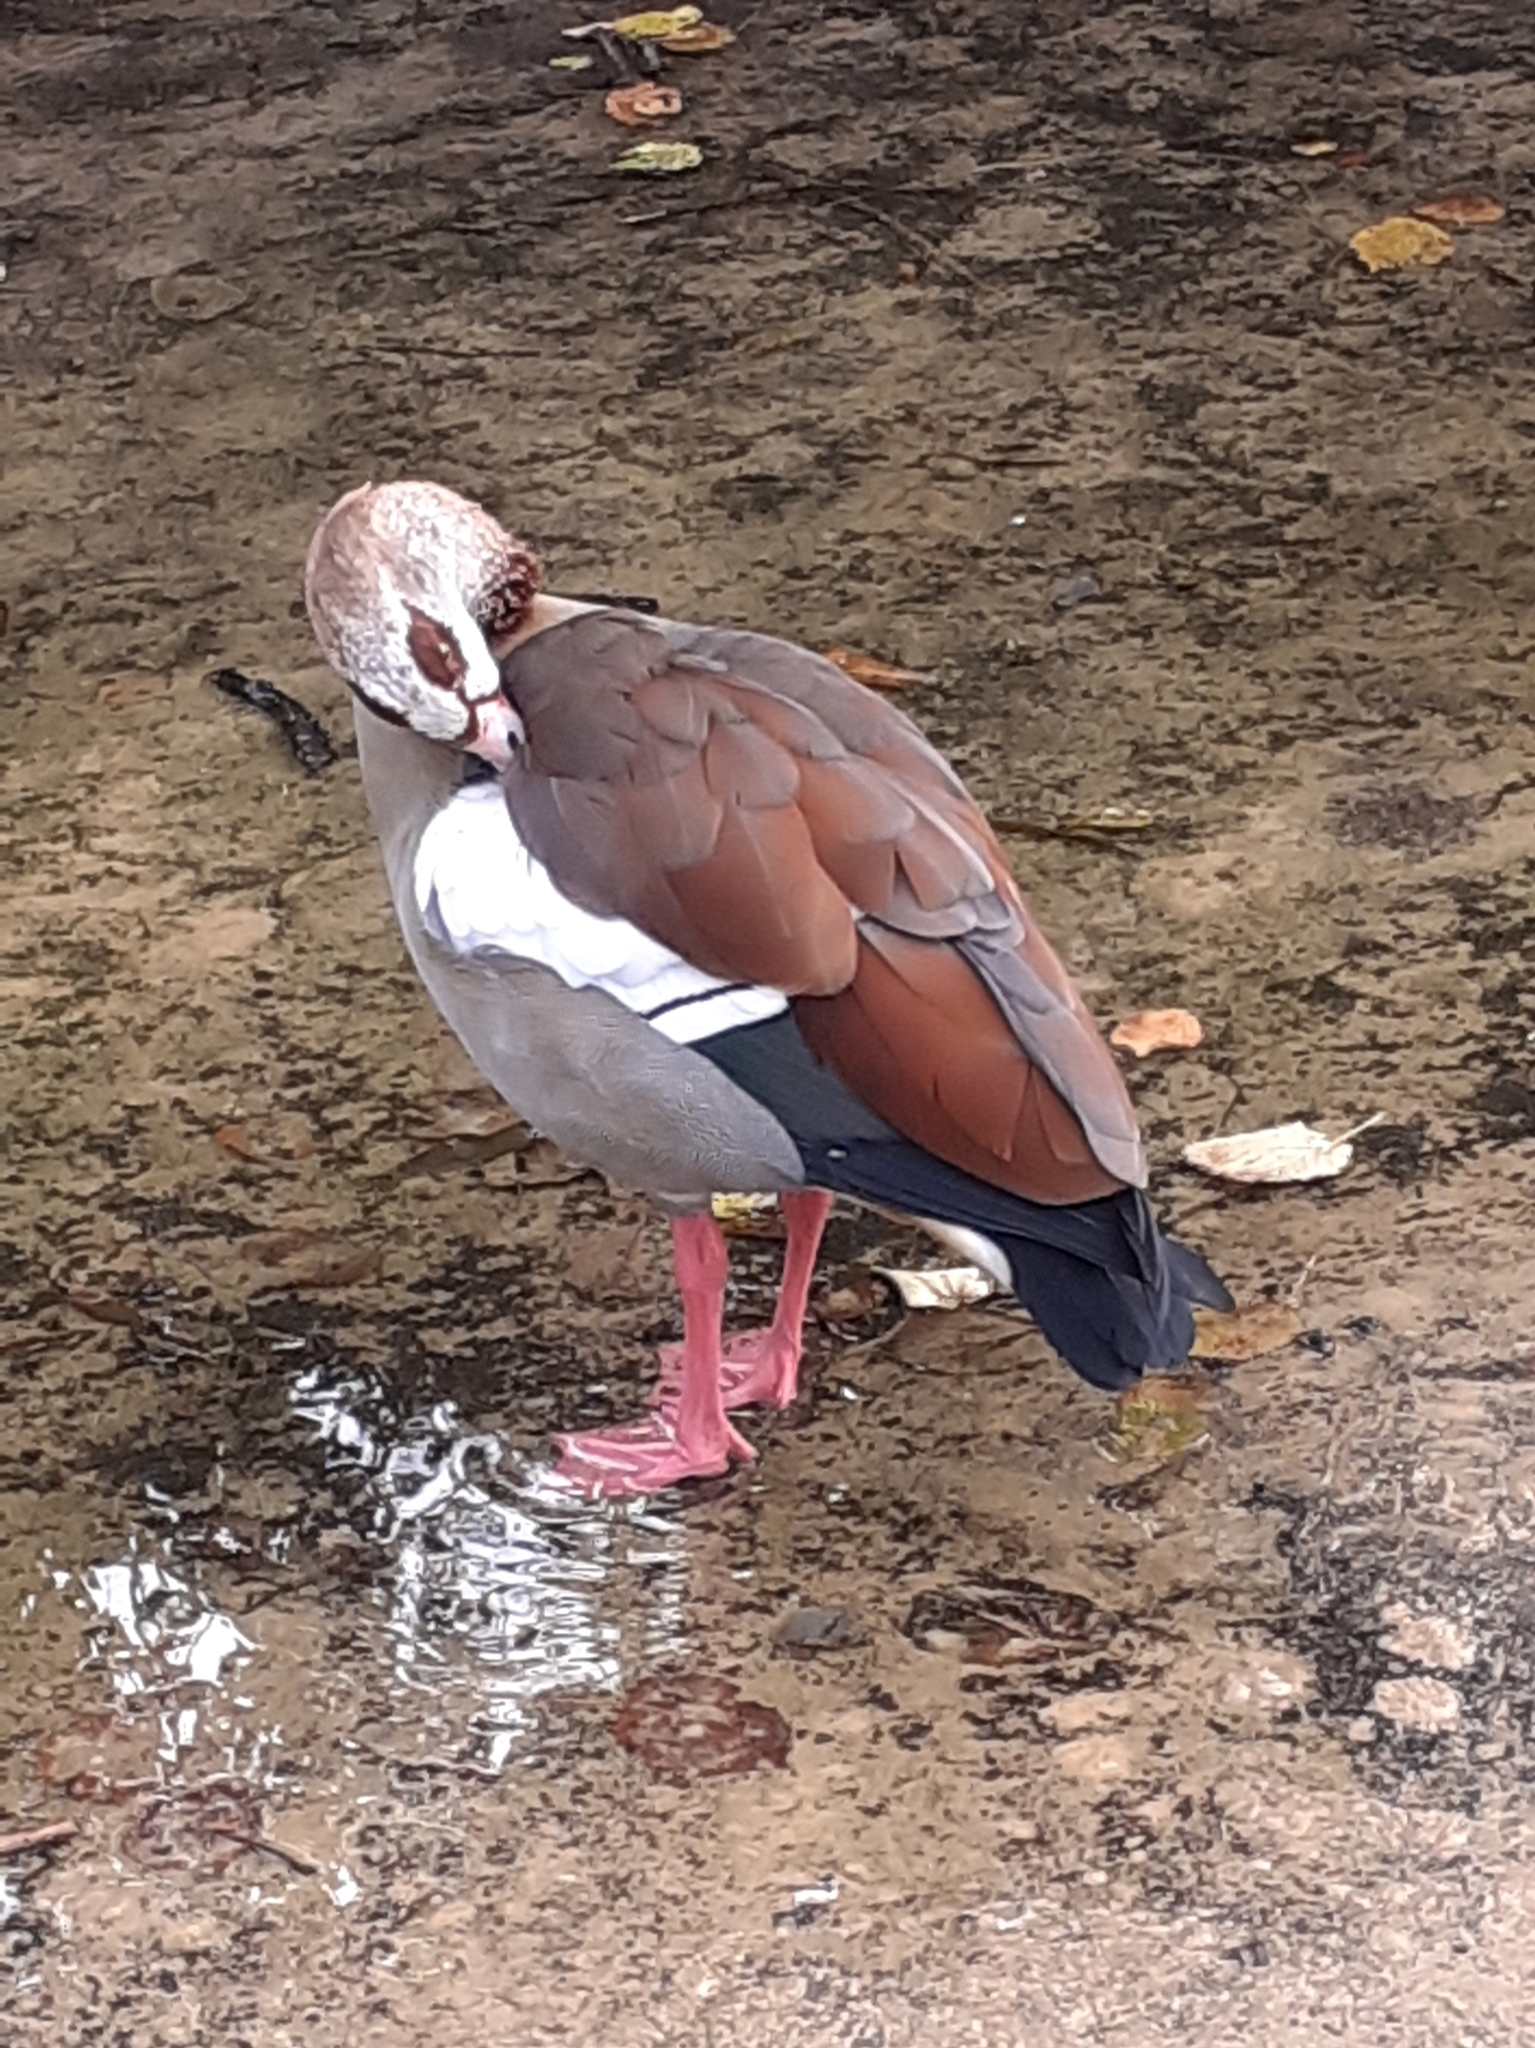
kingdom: Animalia
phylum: Chordata
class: Aves
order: Anseriformes
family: Anatidae
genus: Alopochen
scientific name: Alopochen aegyptiaca
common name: Egyptian goose
